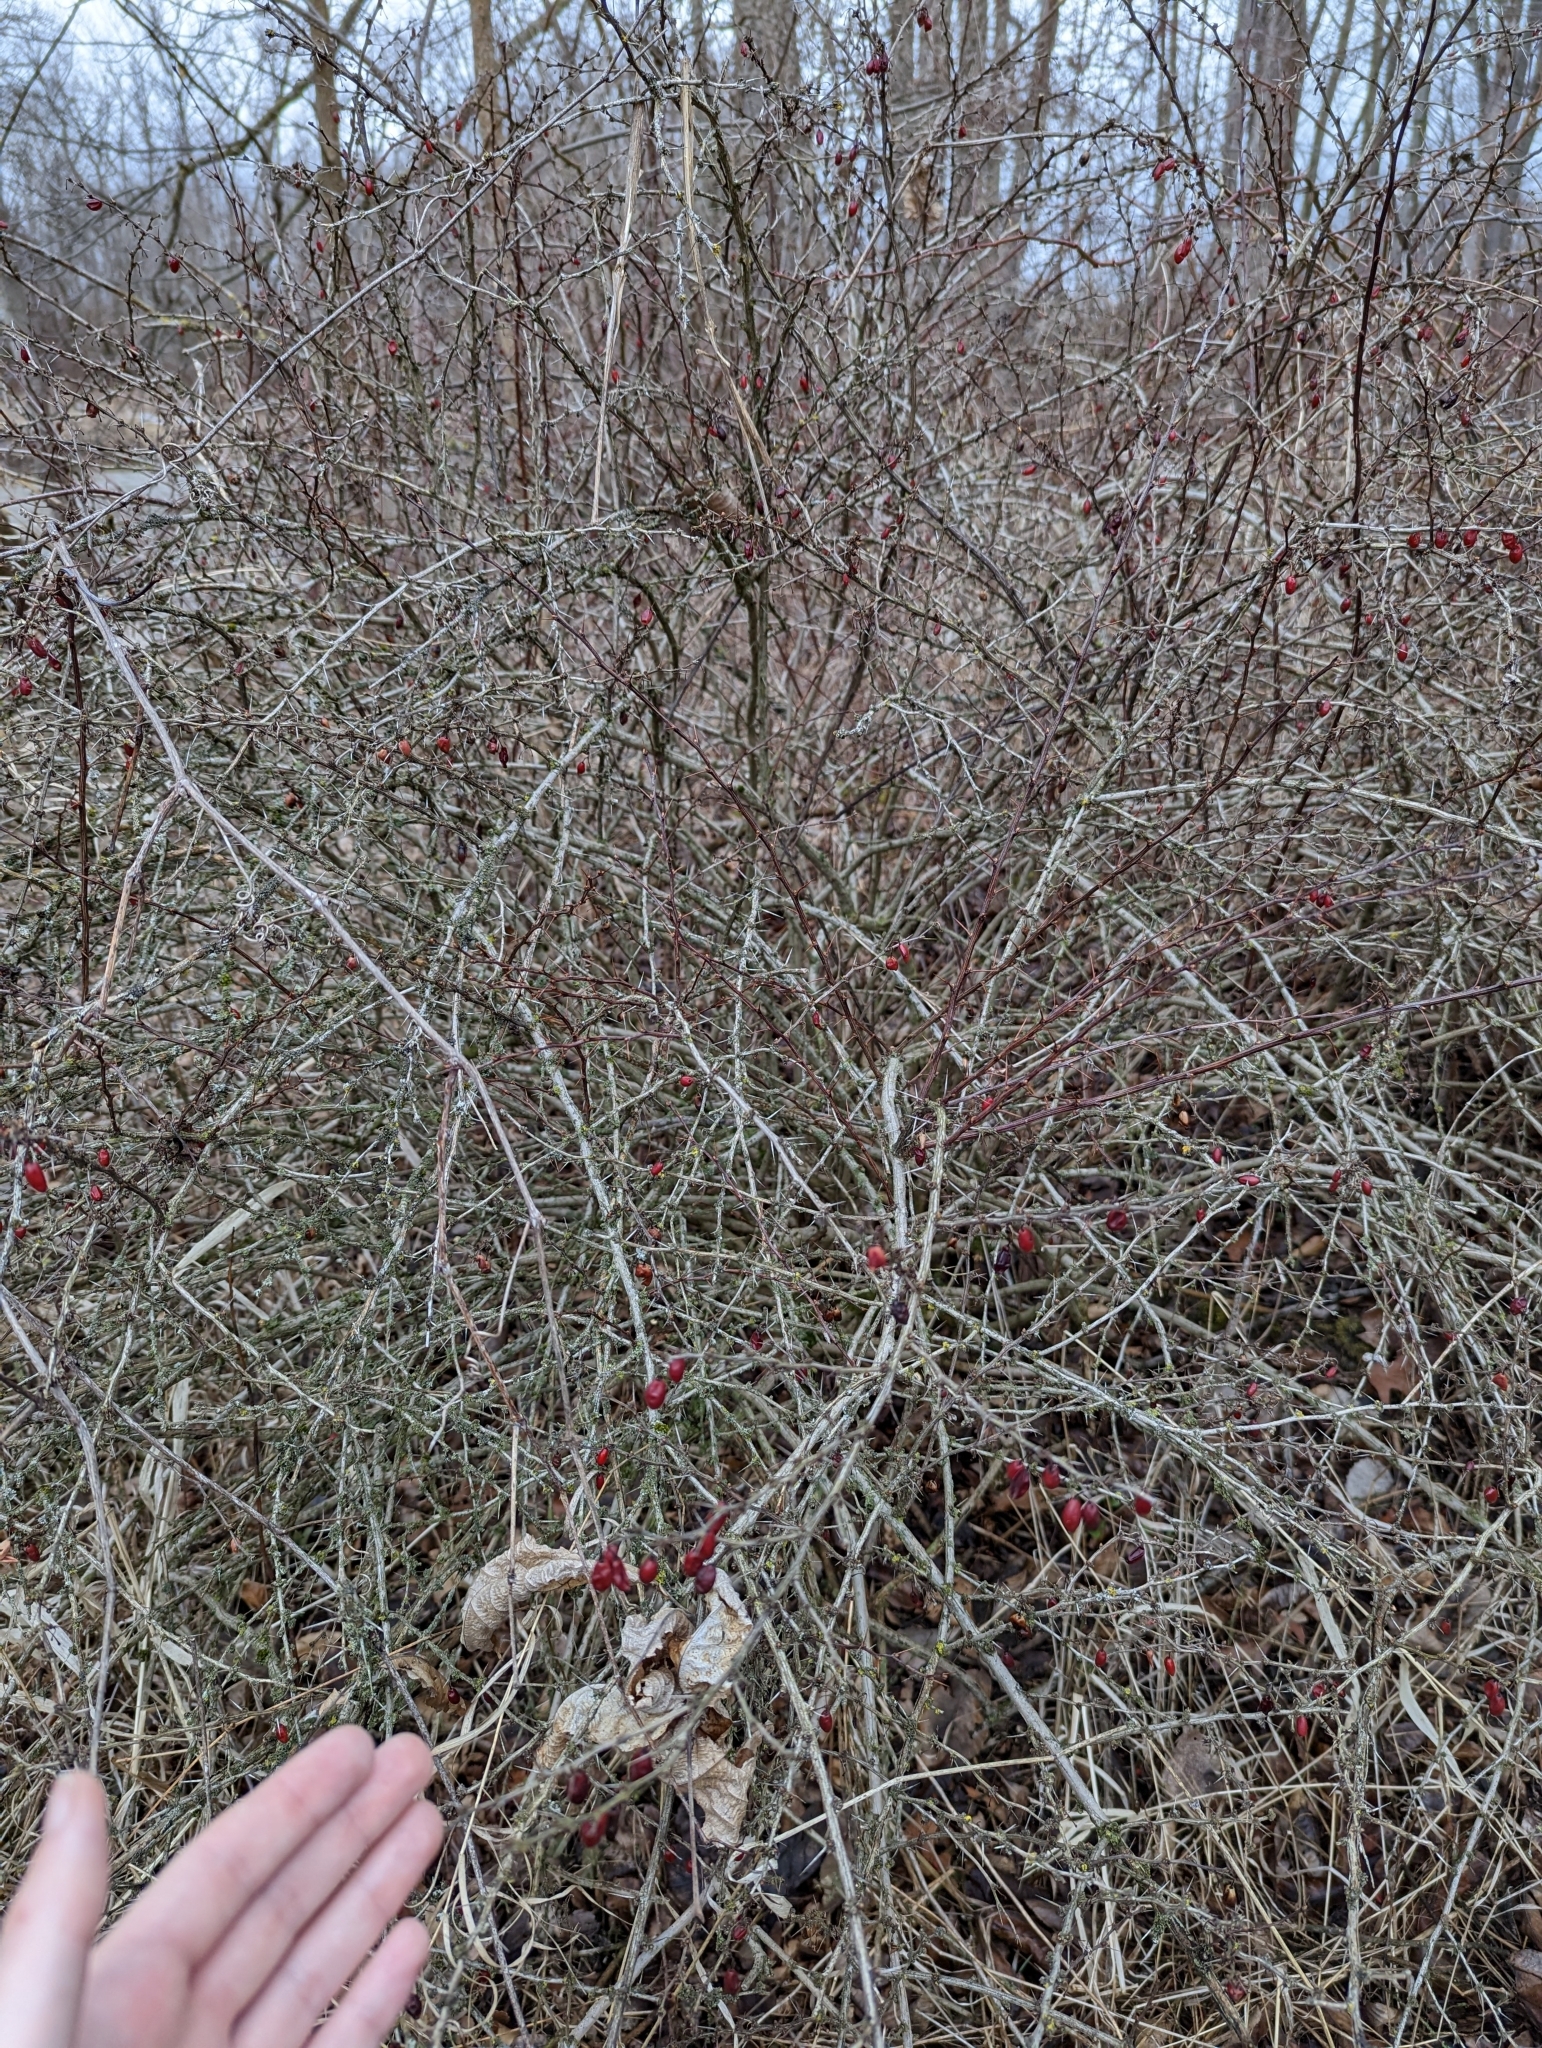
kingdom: Plantae
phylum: Tracheophyta
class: Magnoliopsida
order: Ranunculales
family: Berberidaceae
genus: Berberis
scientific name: Berberis thunbergii
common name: Japanese barberry
